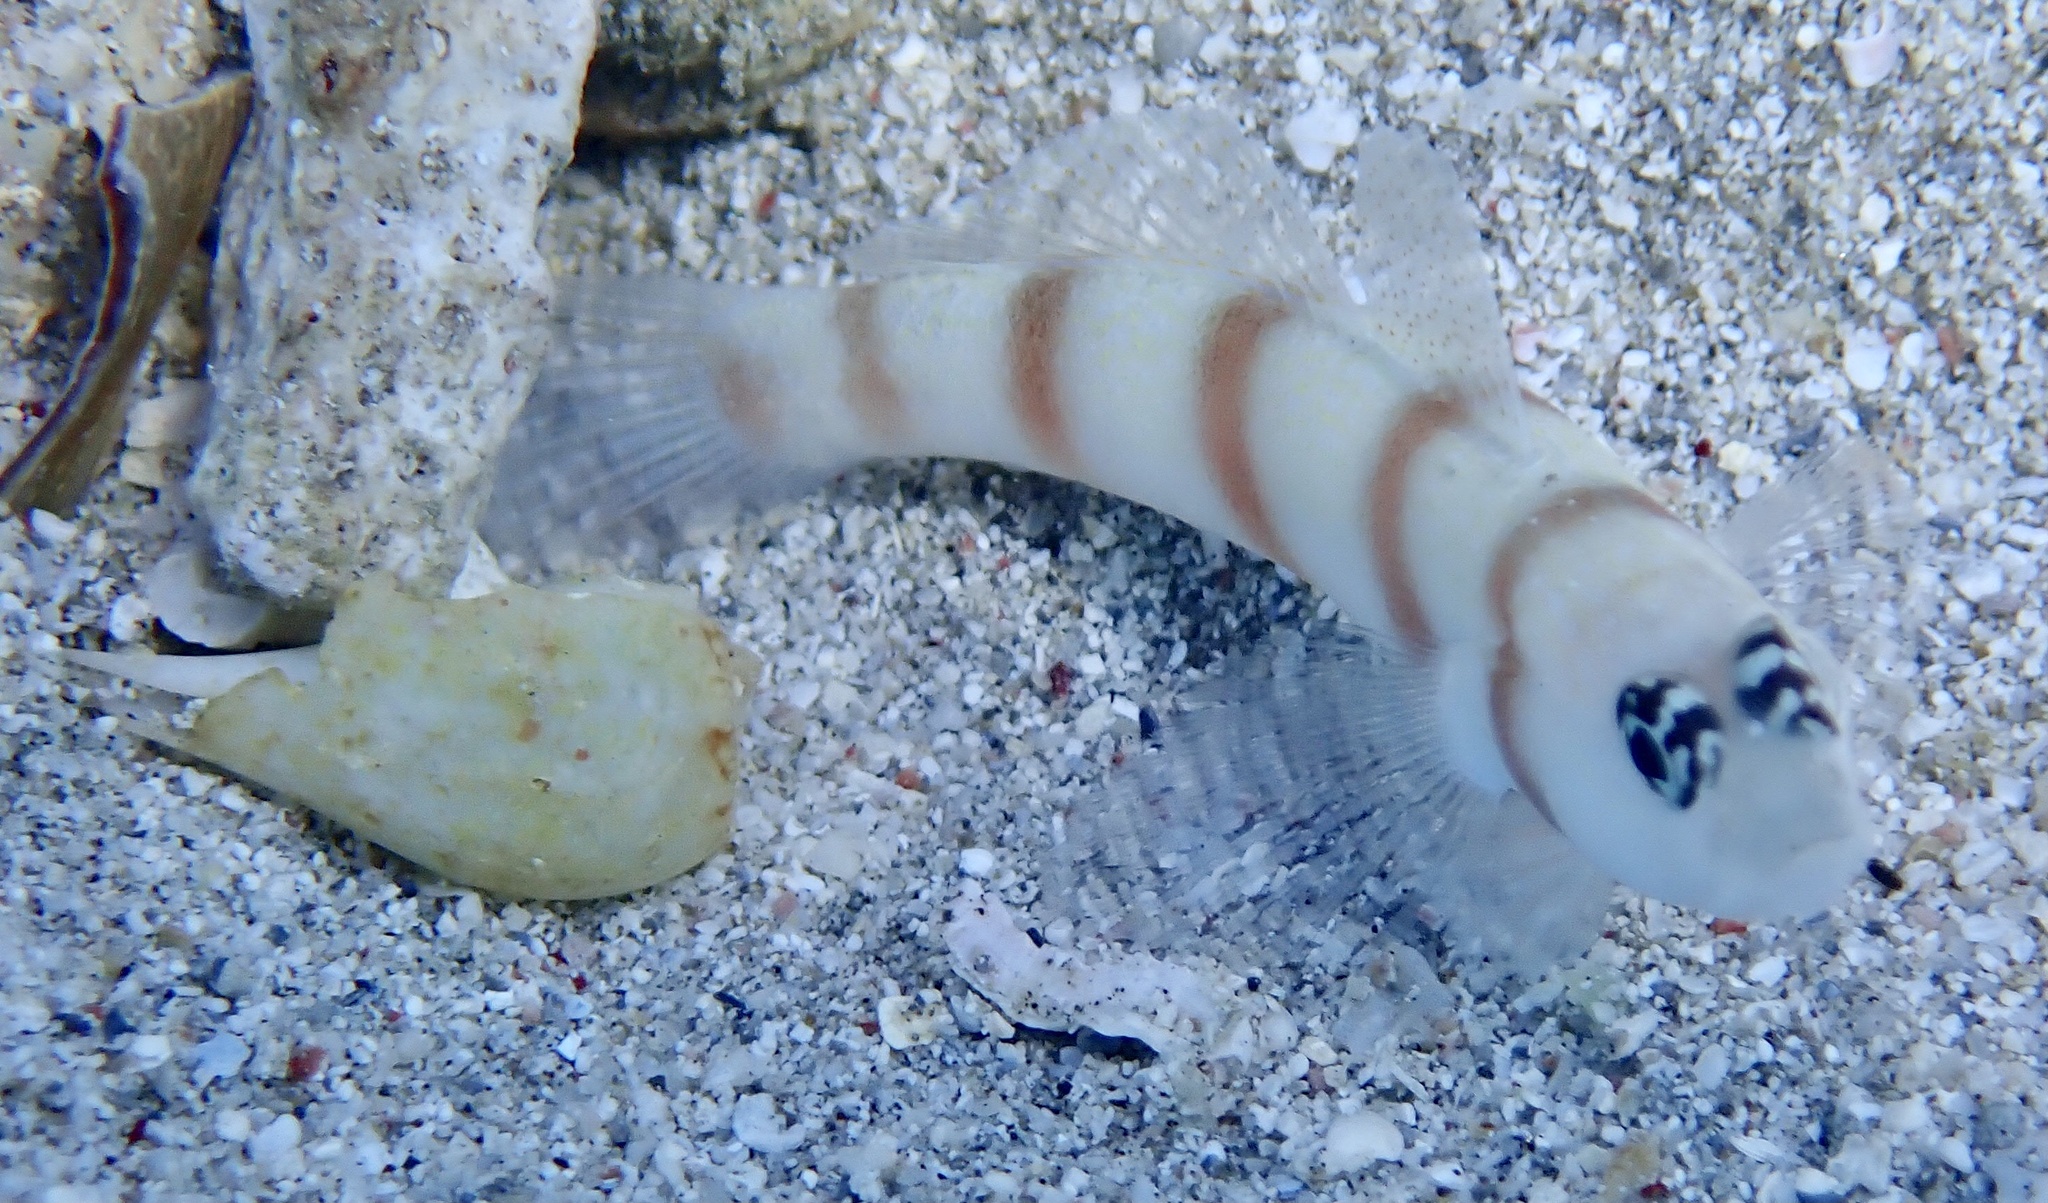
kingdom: Animalia
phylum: Chordata
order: Perciformes
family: Gobiidae
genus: Amblyeleotris
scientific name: Amblyeleotris steinitzi
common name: Steinitz' prawn-goby
